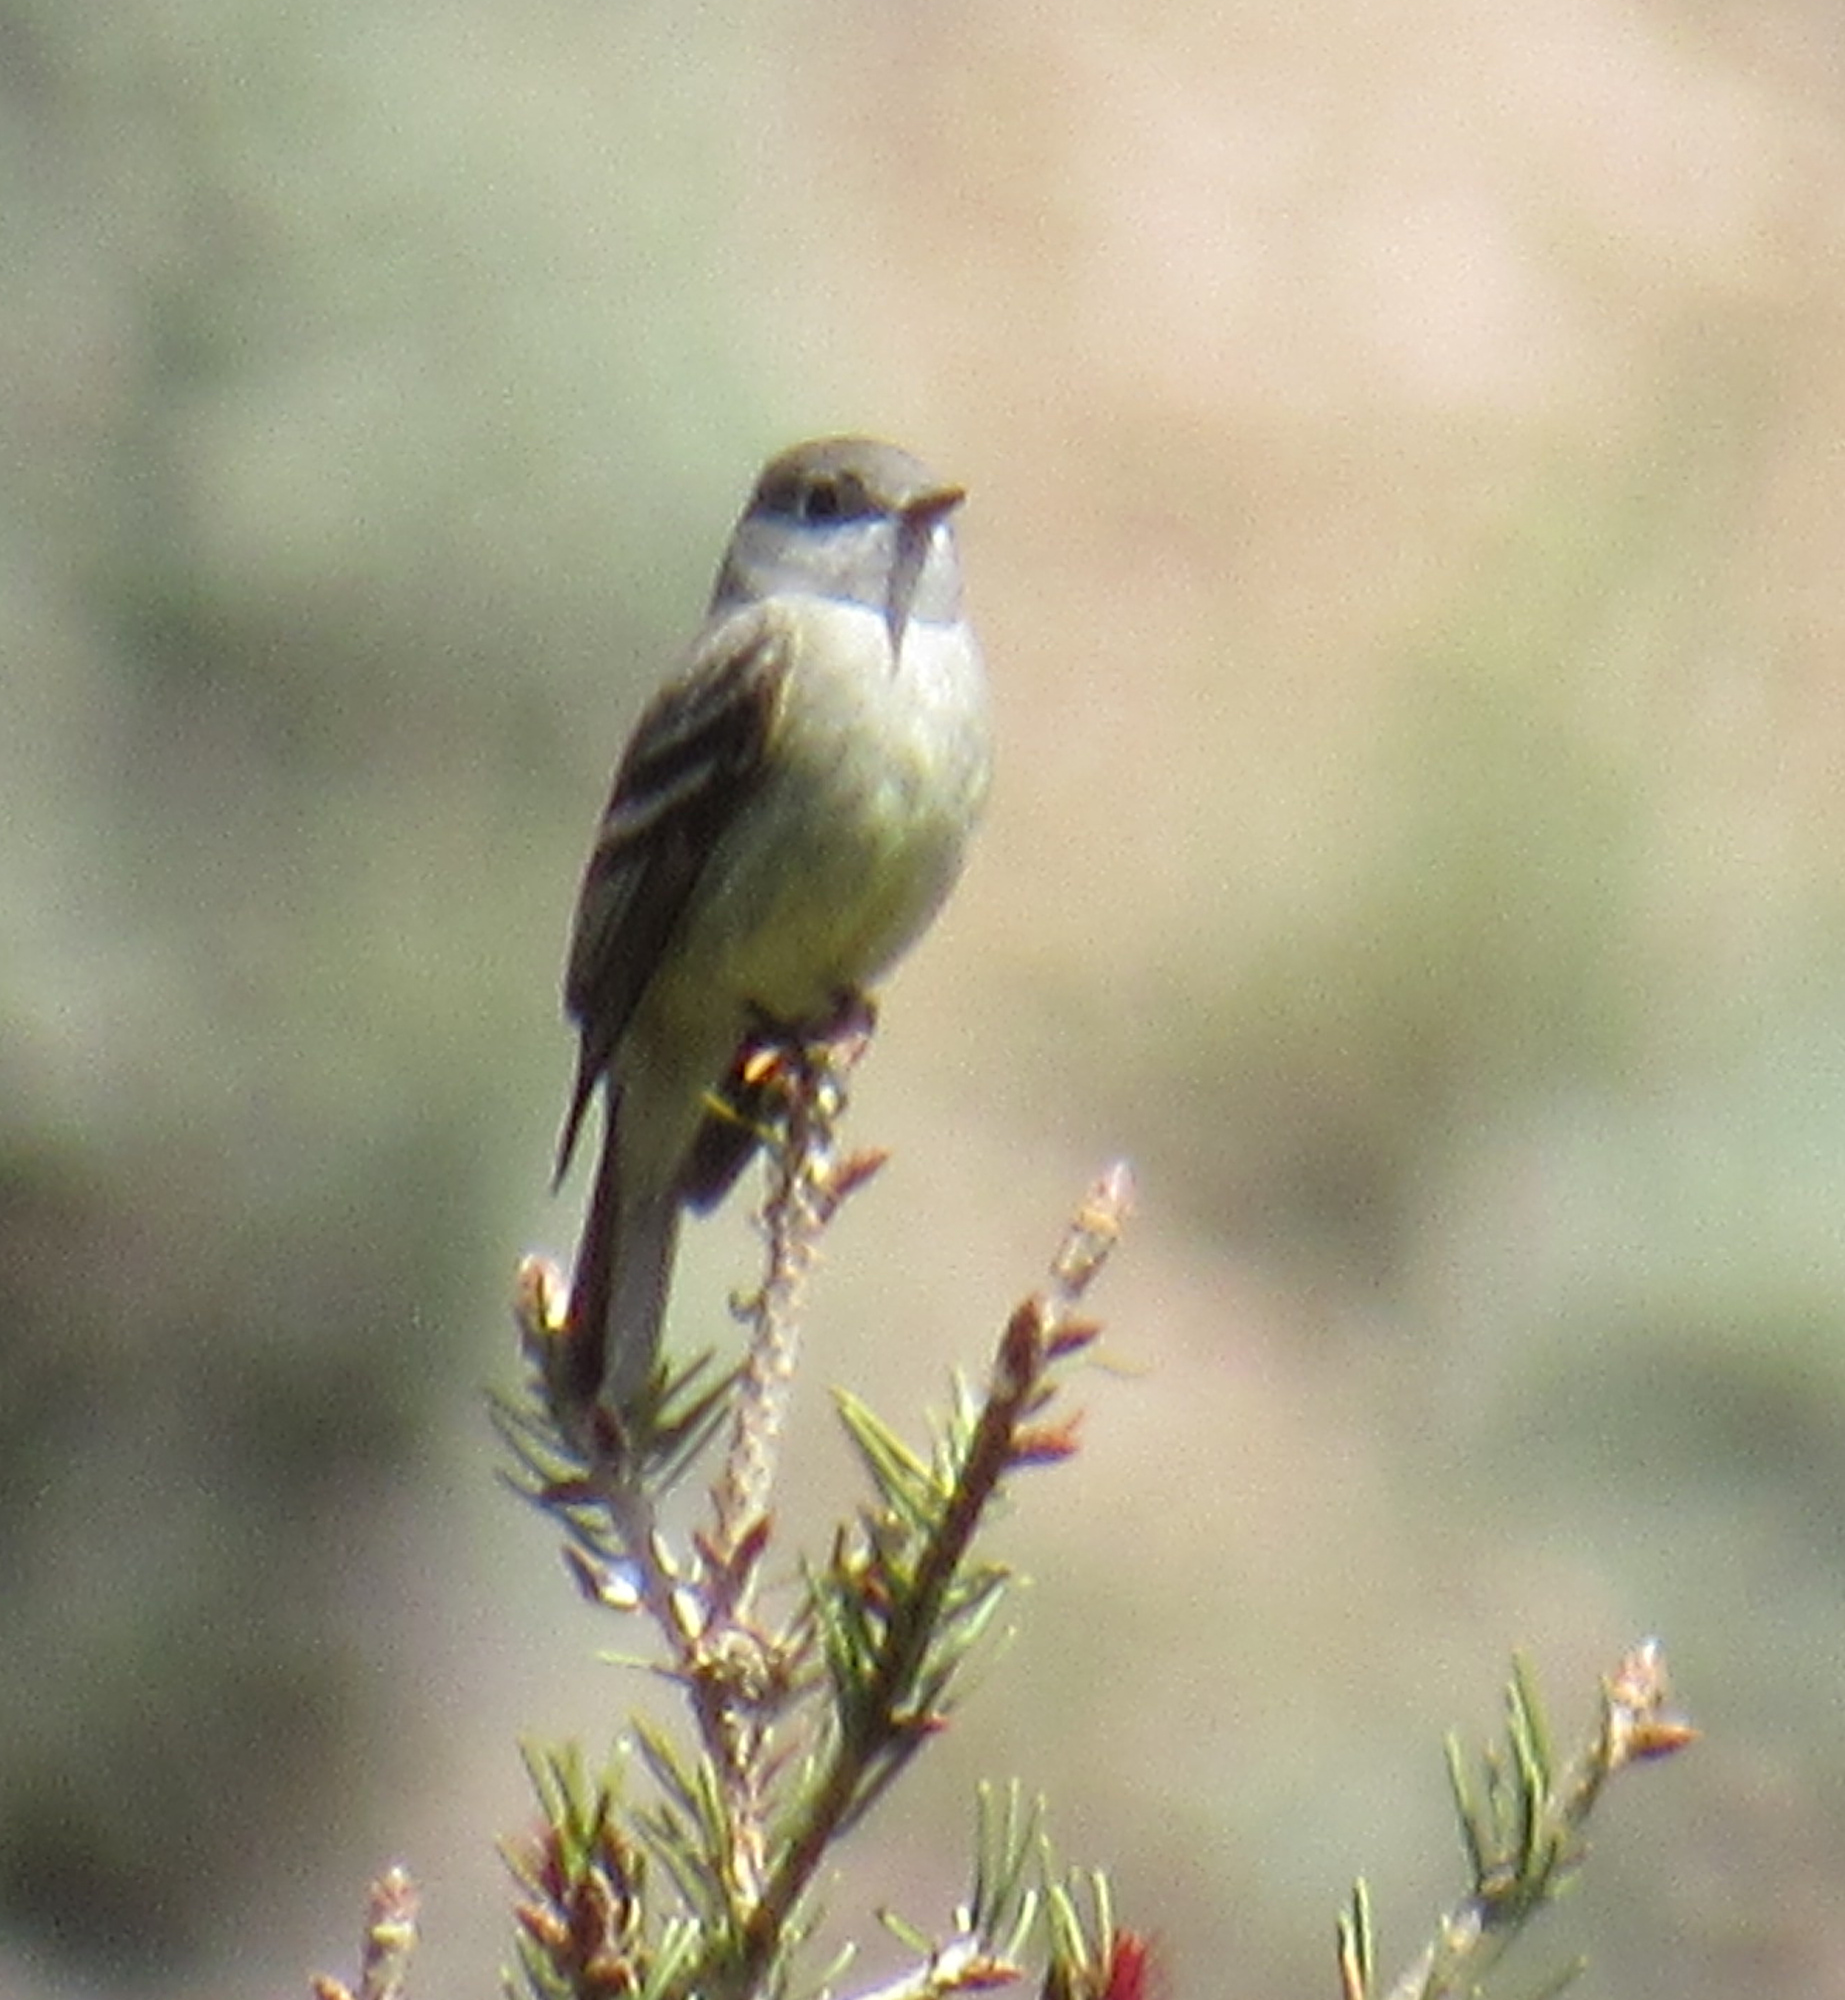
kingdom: Animalia
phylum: Chordata
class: Aves
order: Passeriformes
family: Tyrannidae
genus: Empidonax
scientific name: Empidonax hammondii
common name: Hammond's flycatcher
